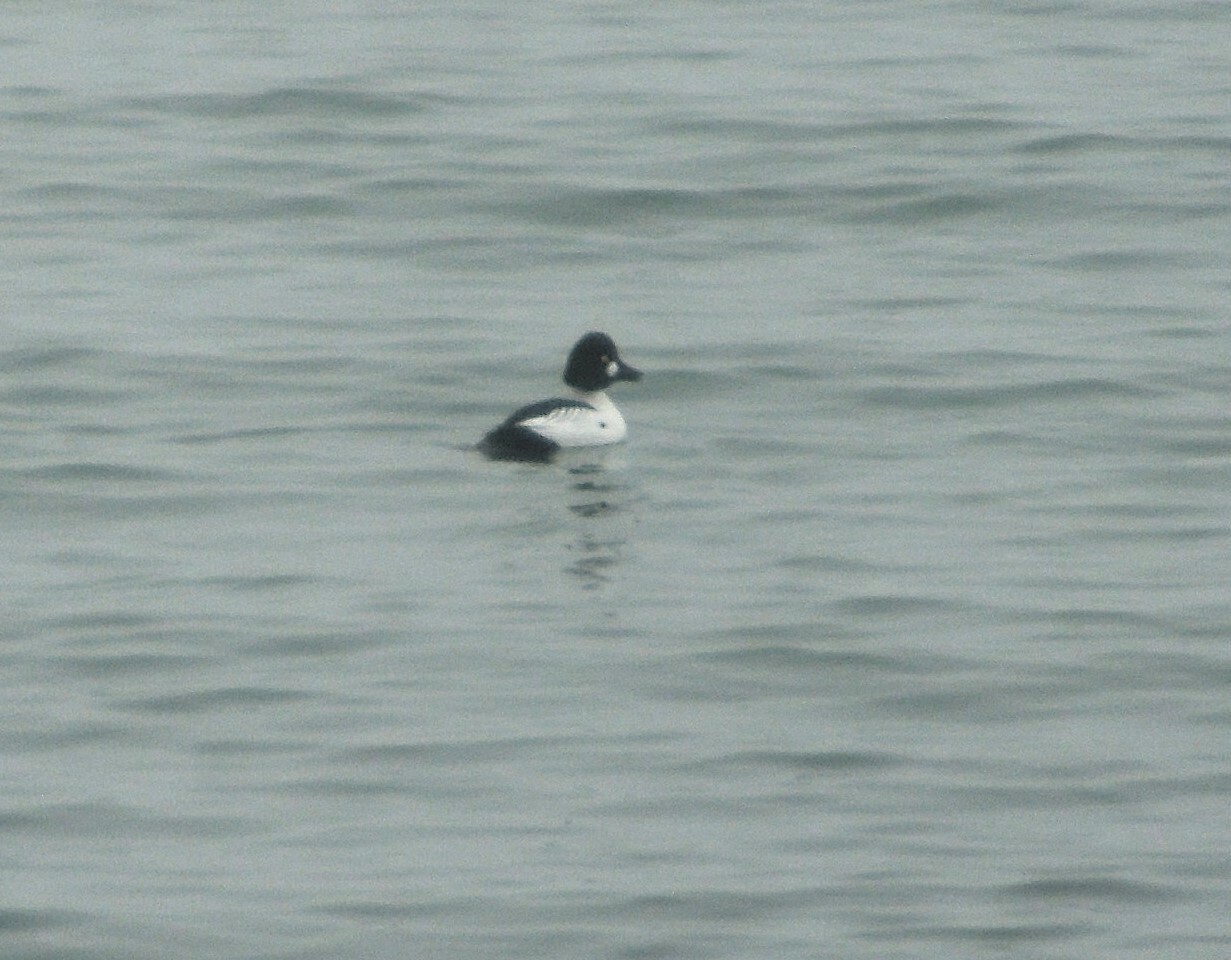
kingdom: Animalia
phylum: Chordata
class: Aves
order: Anseriformes
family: Anatidae
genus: Bucephala
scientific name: Bucephala clangula
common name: Common goldeneye
